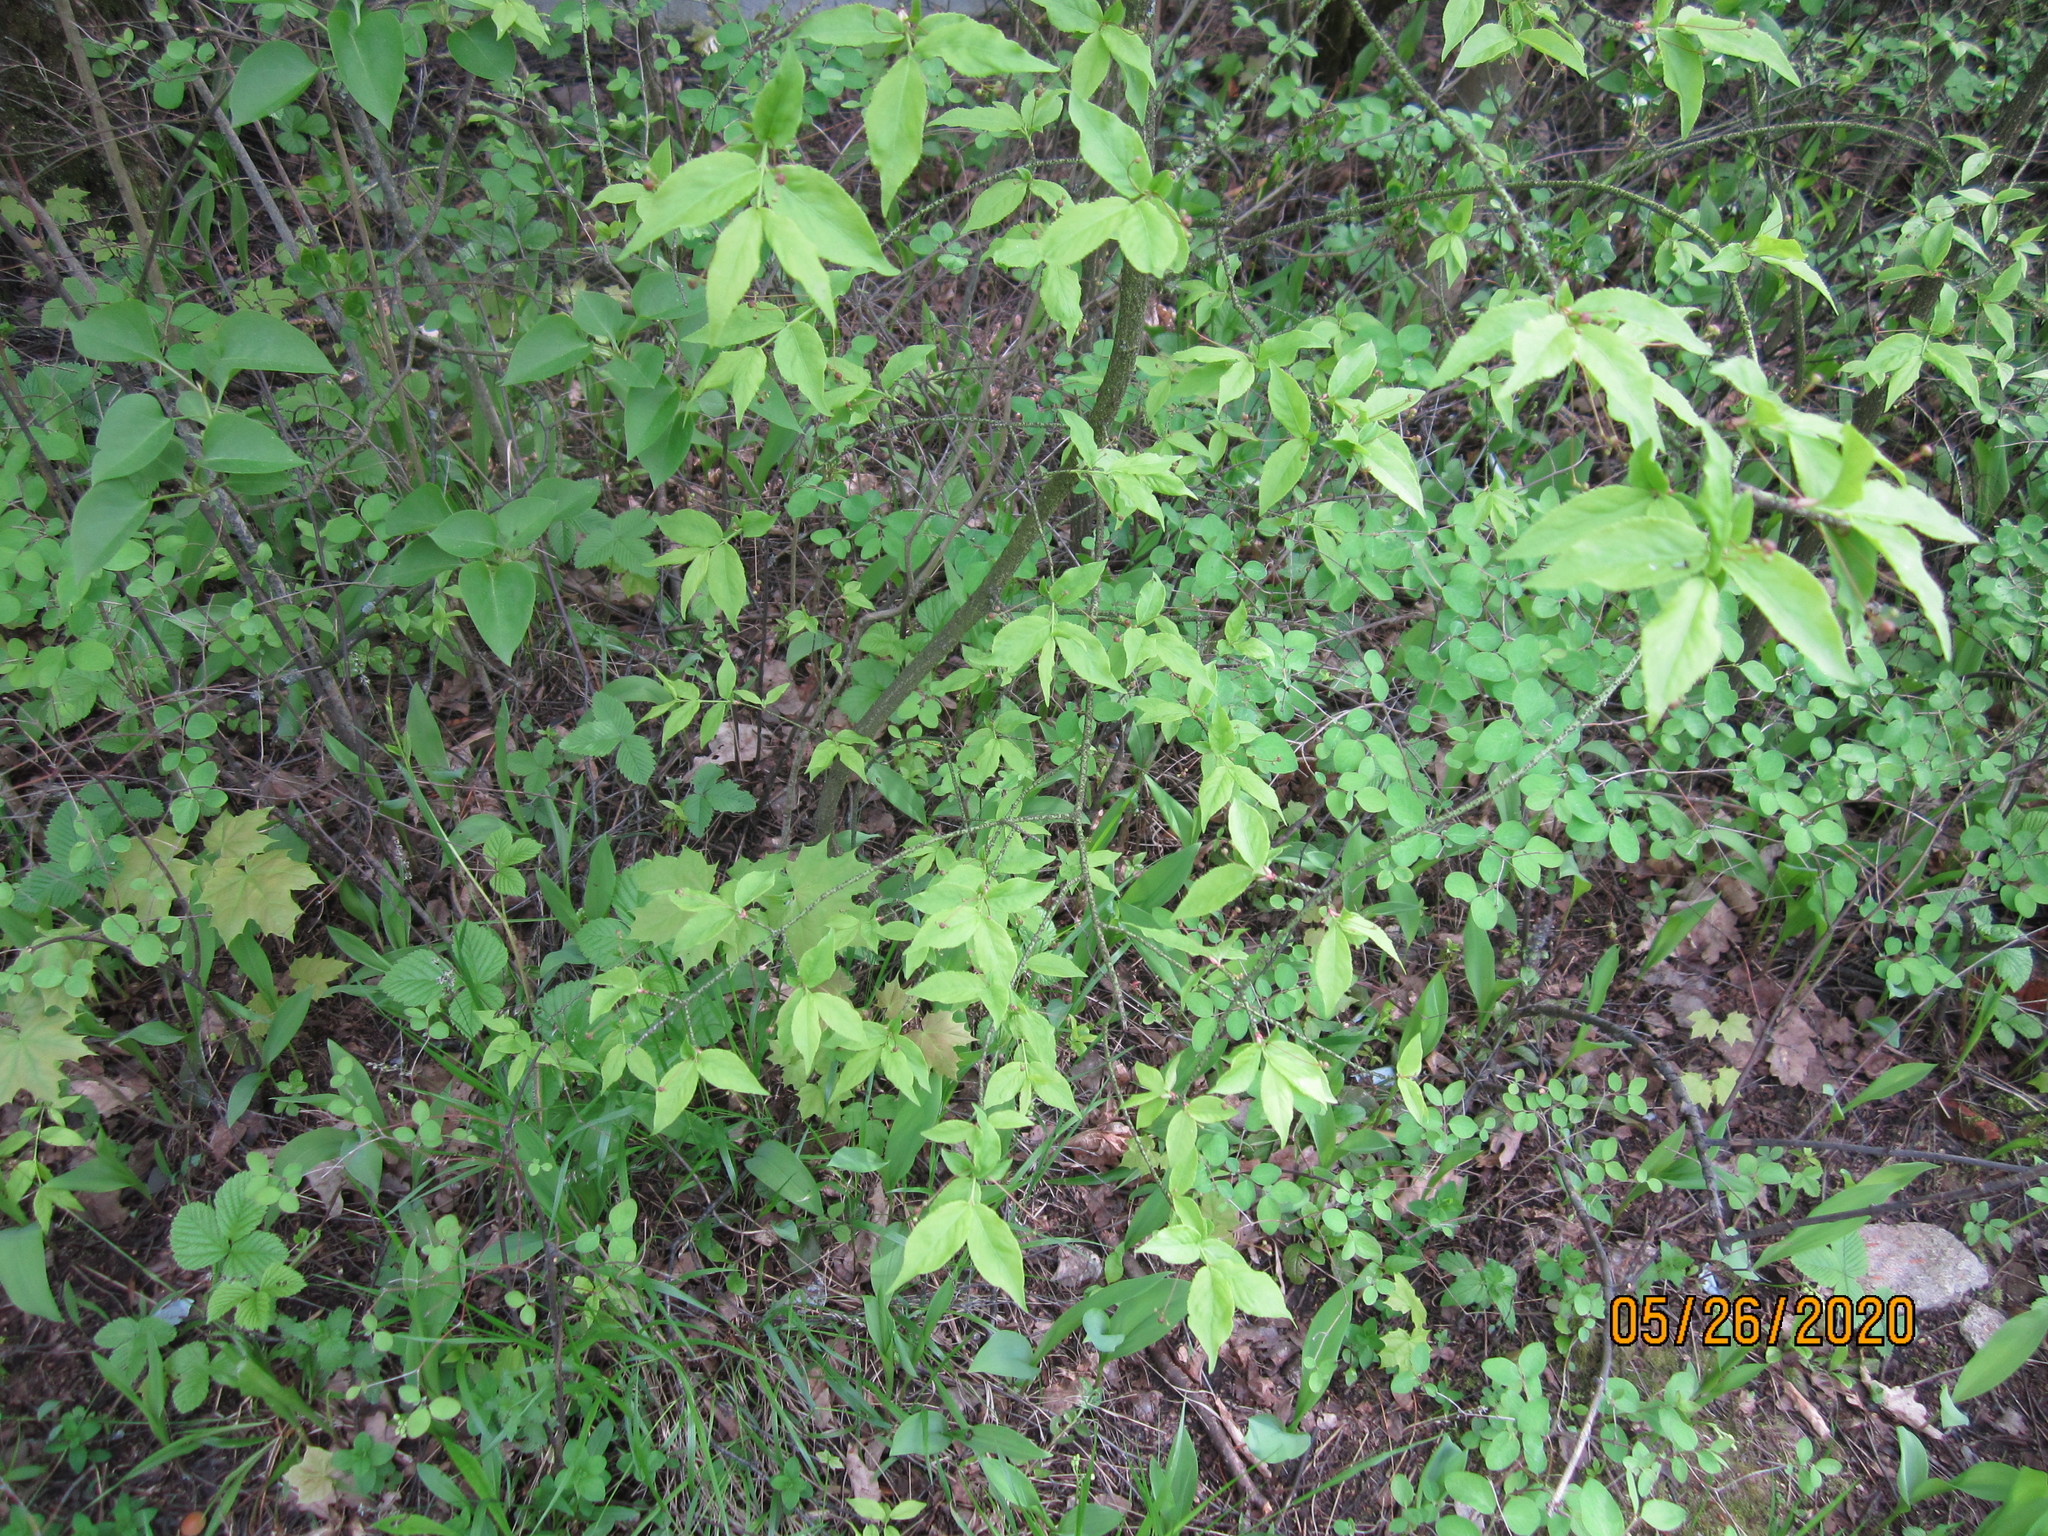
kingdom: Plantae
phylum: Tracheophyta
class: Magnoliopsida
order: Celastrales
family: Celastraceae
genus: Euonymus
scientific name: Euonymus verrucosus
